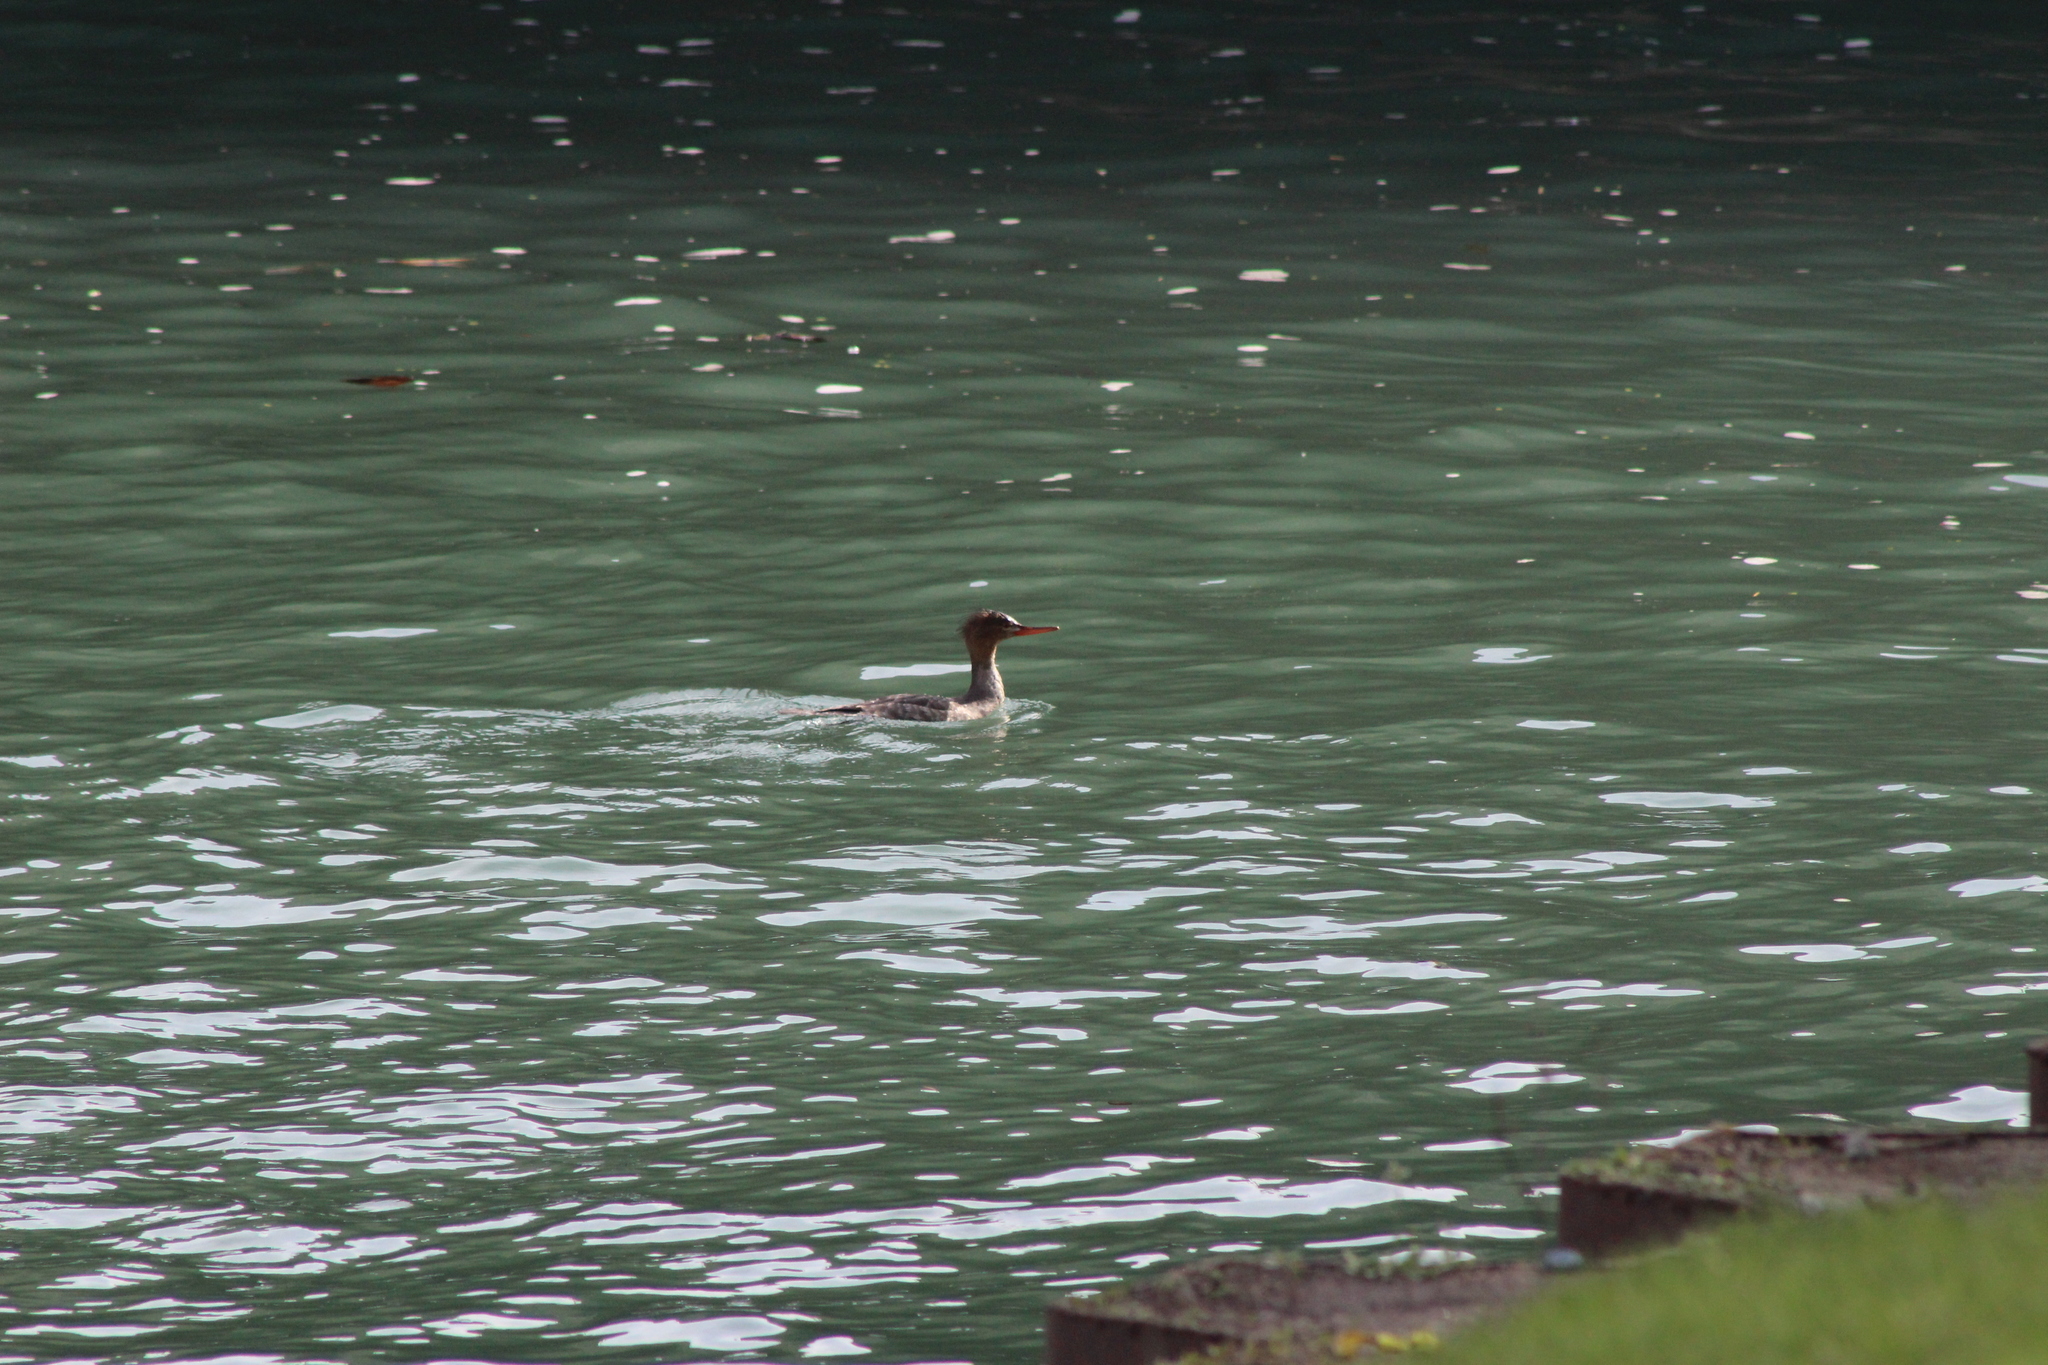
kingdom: Animalia
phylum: Chordata
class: Aves
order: Anseriformes
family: Anatidae
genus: Mergus
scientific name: Mergus serrator
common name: Red-breasted merganser
